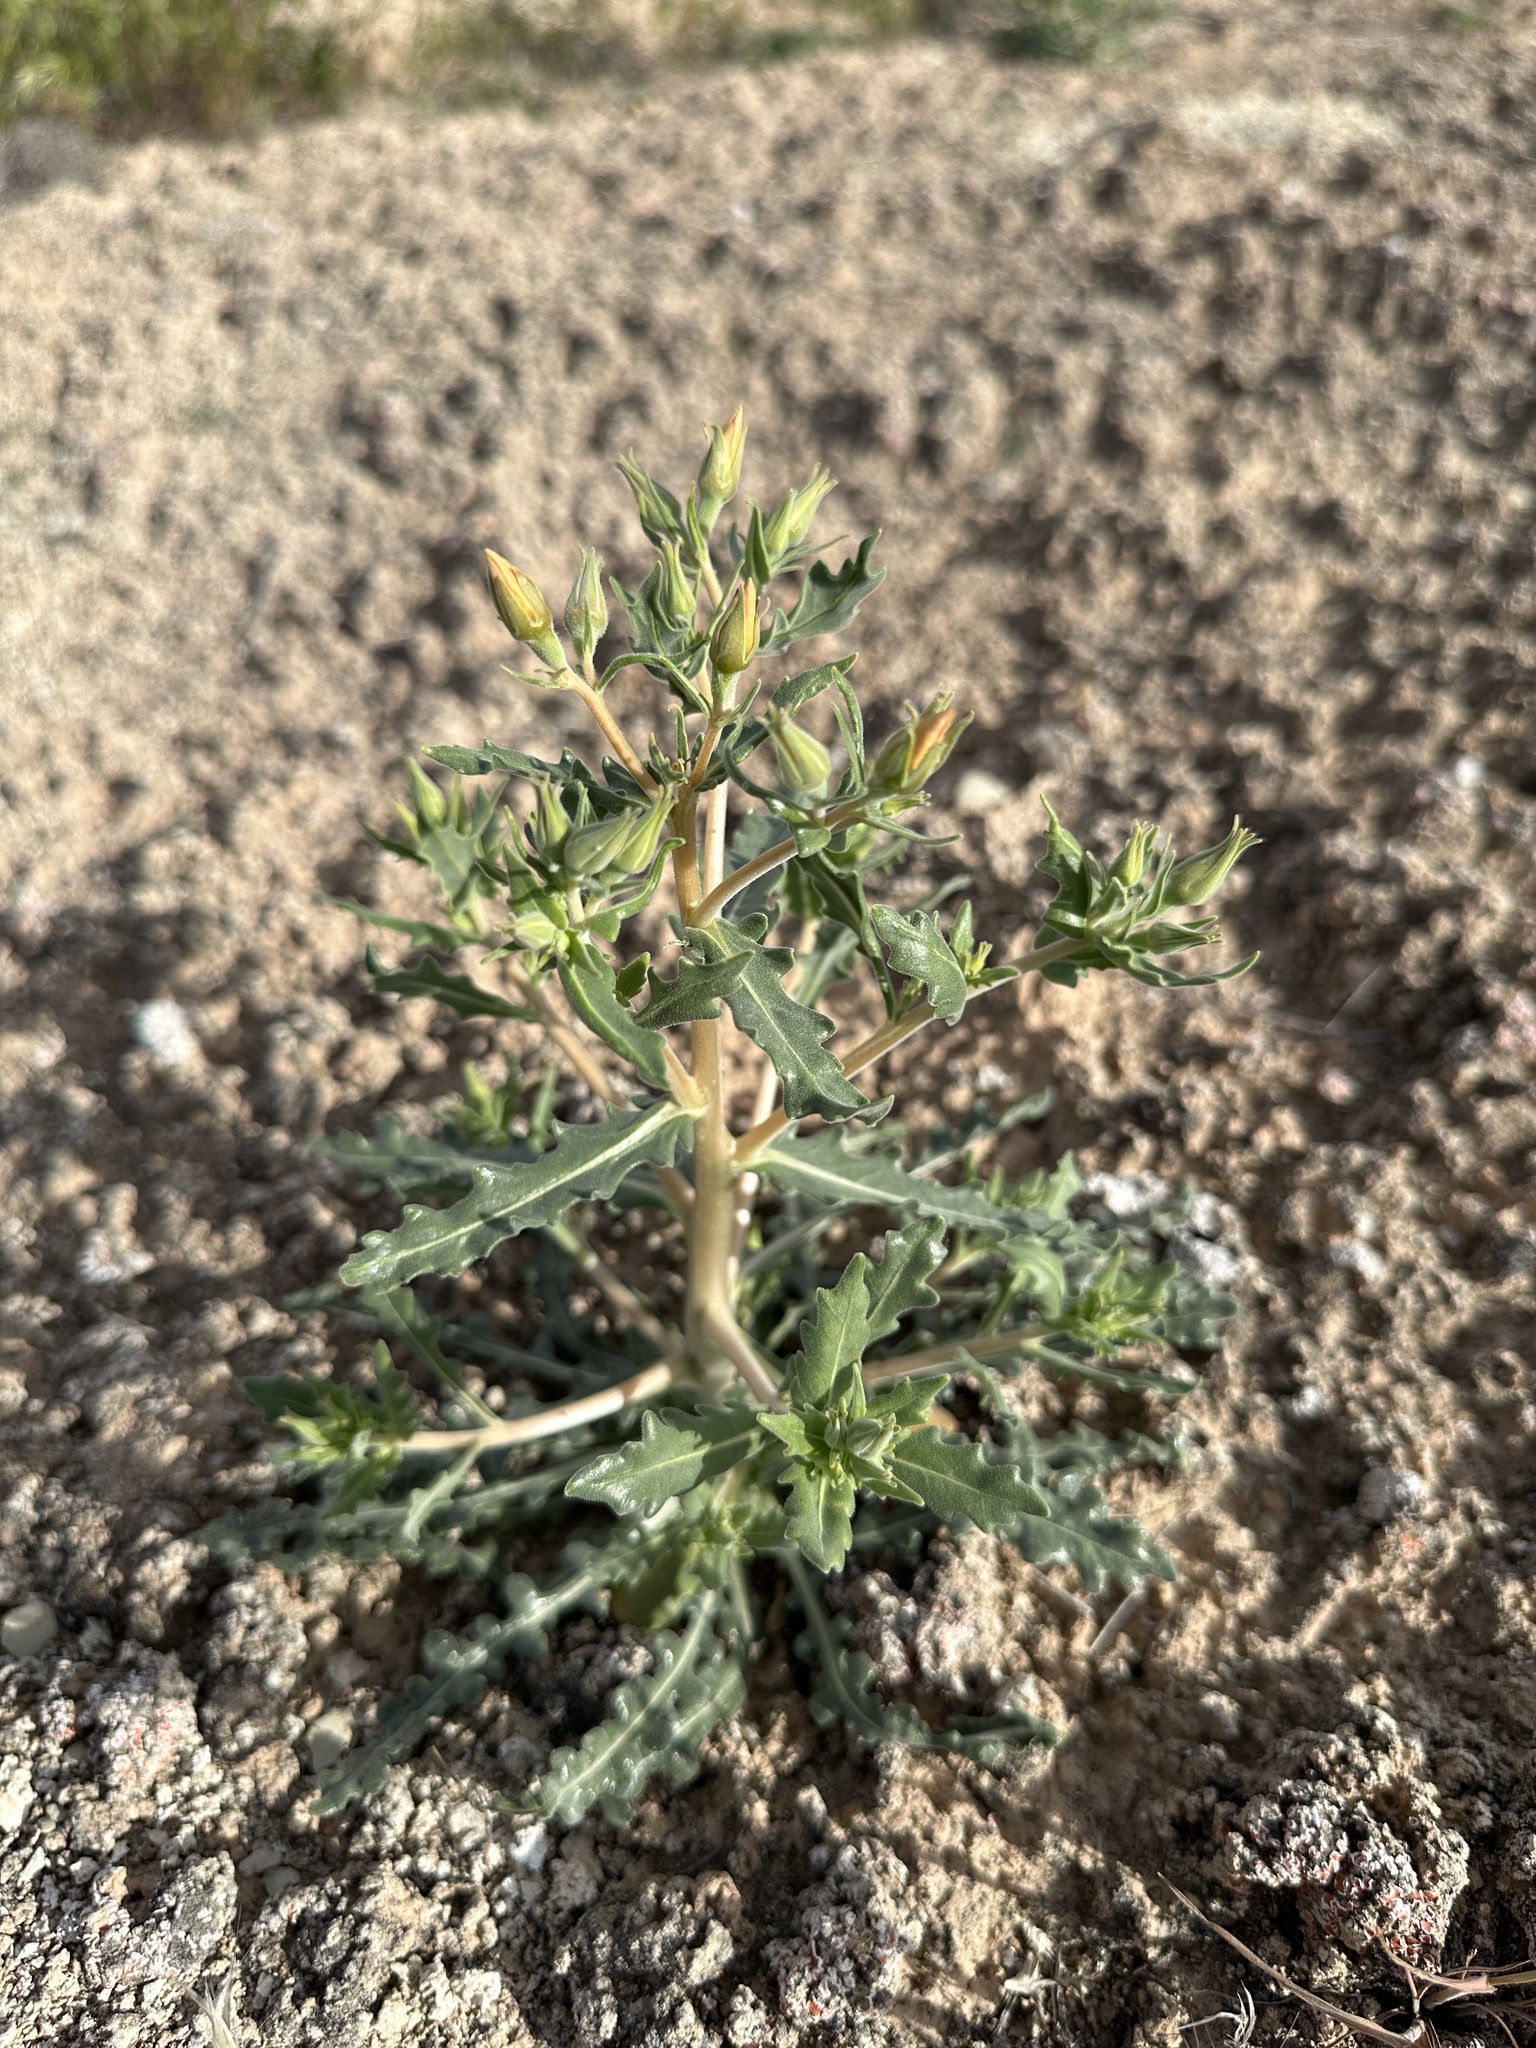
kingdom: Plantae
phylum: Tracheophyta
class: Magnoliopsida
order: Cornales
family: Loasaceae
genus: Mentzelia
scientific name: Mentzelia pterosperma
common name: Wing-seed blazingstar
